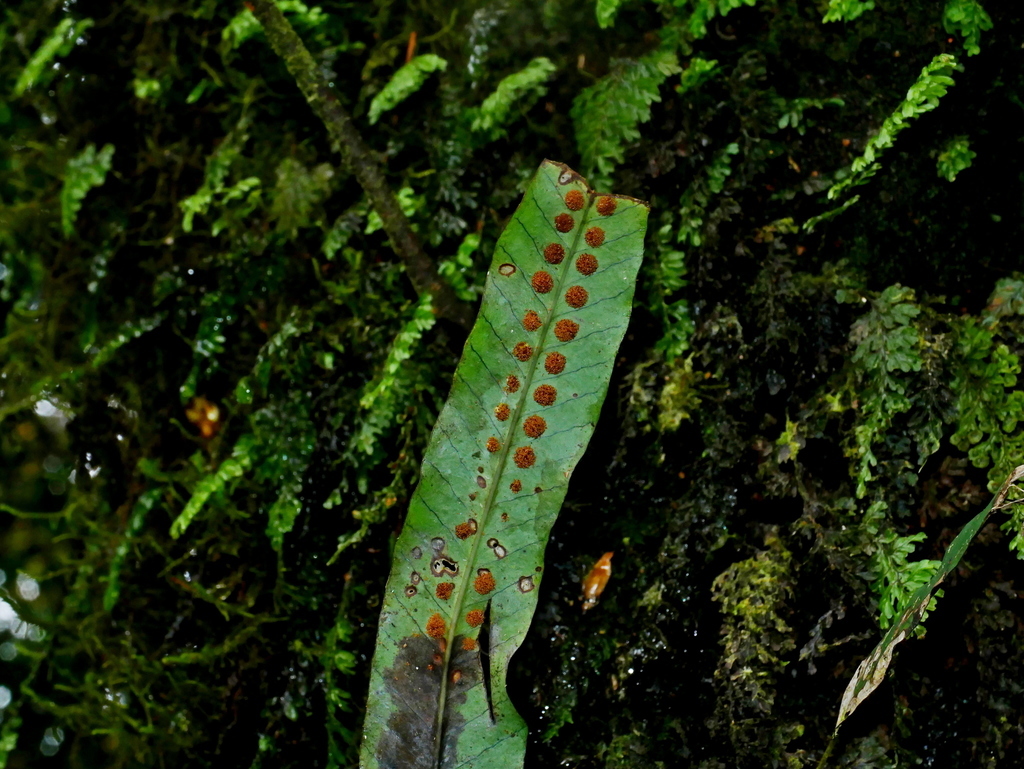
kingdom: Plantae
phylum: Tracheophyta
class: Polypodiopsida
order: Polypodiales
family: Polypodiaceae
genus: Selliguea
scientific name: Selliguea engleri
